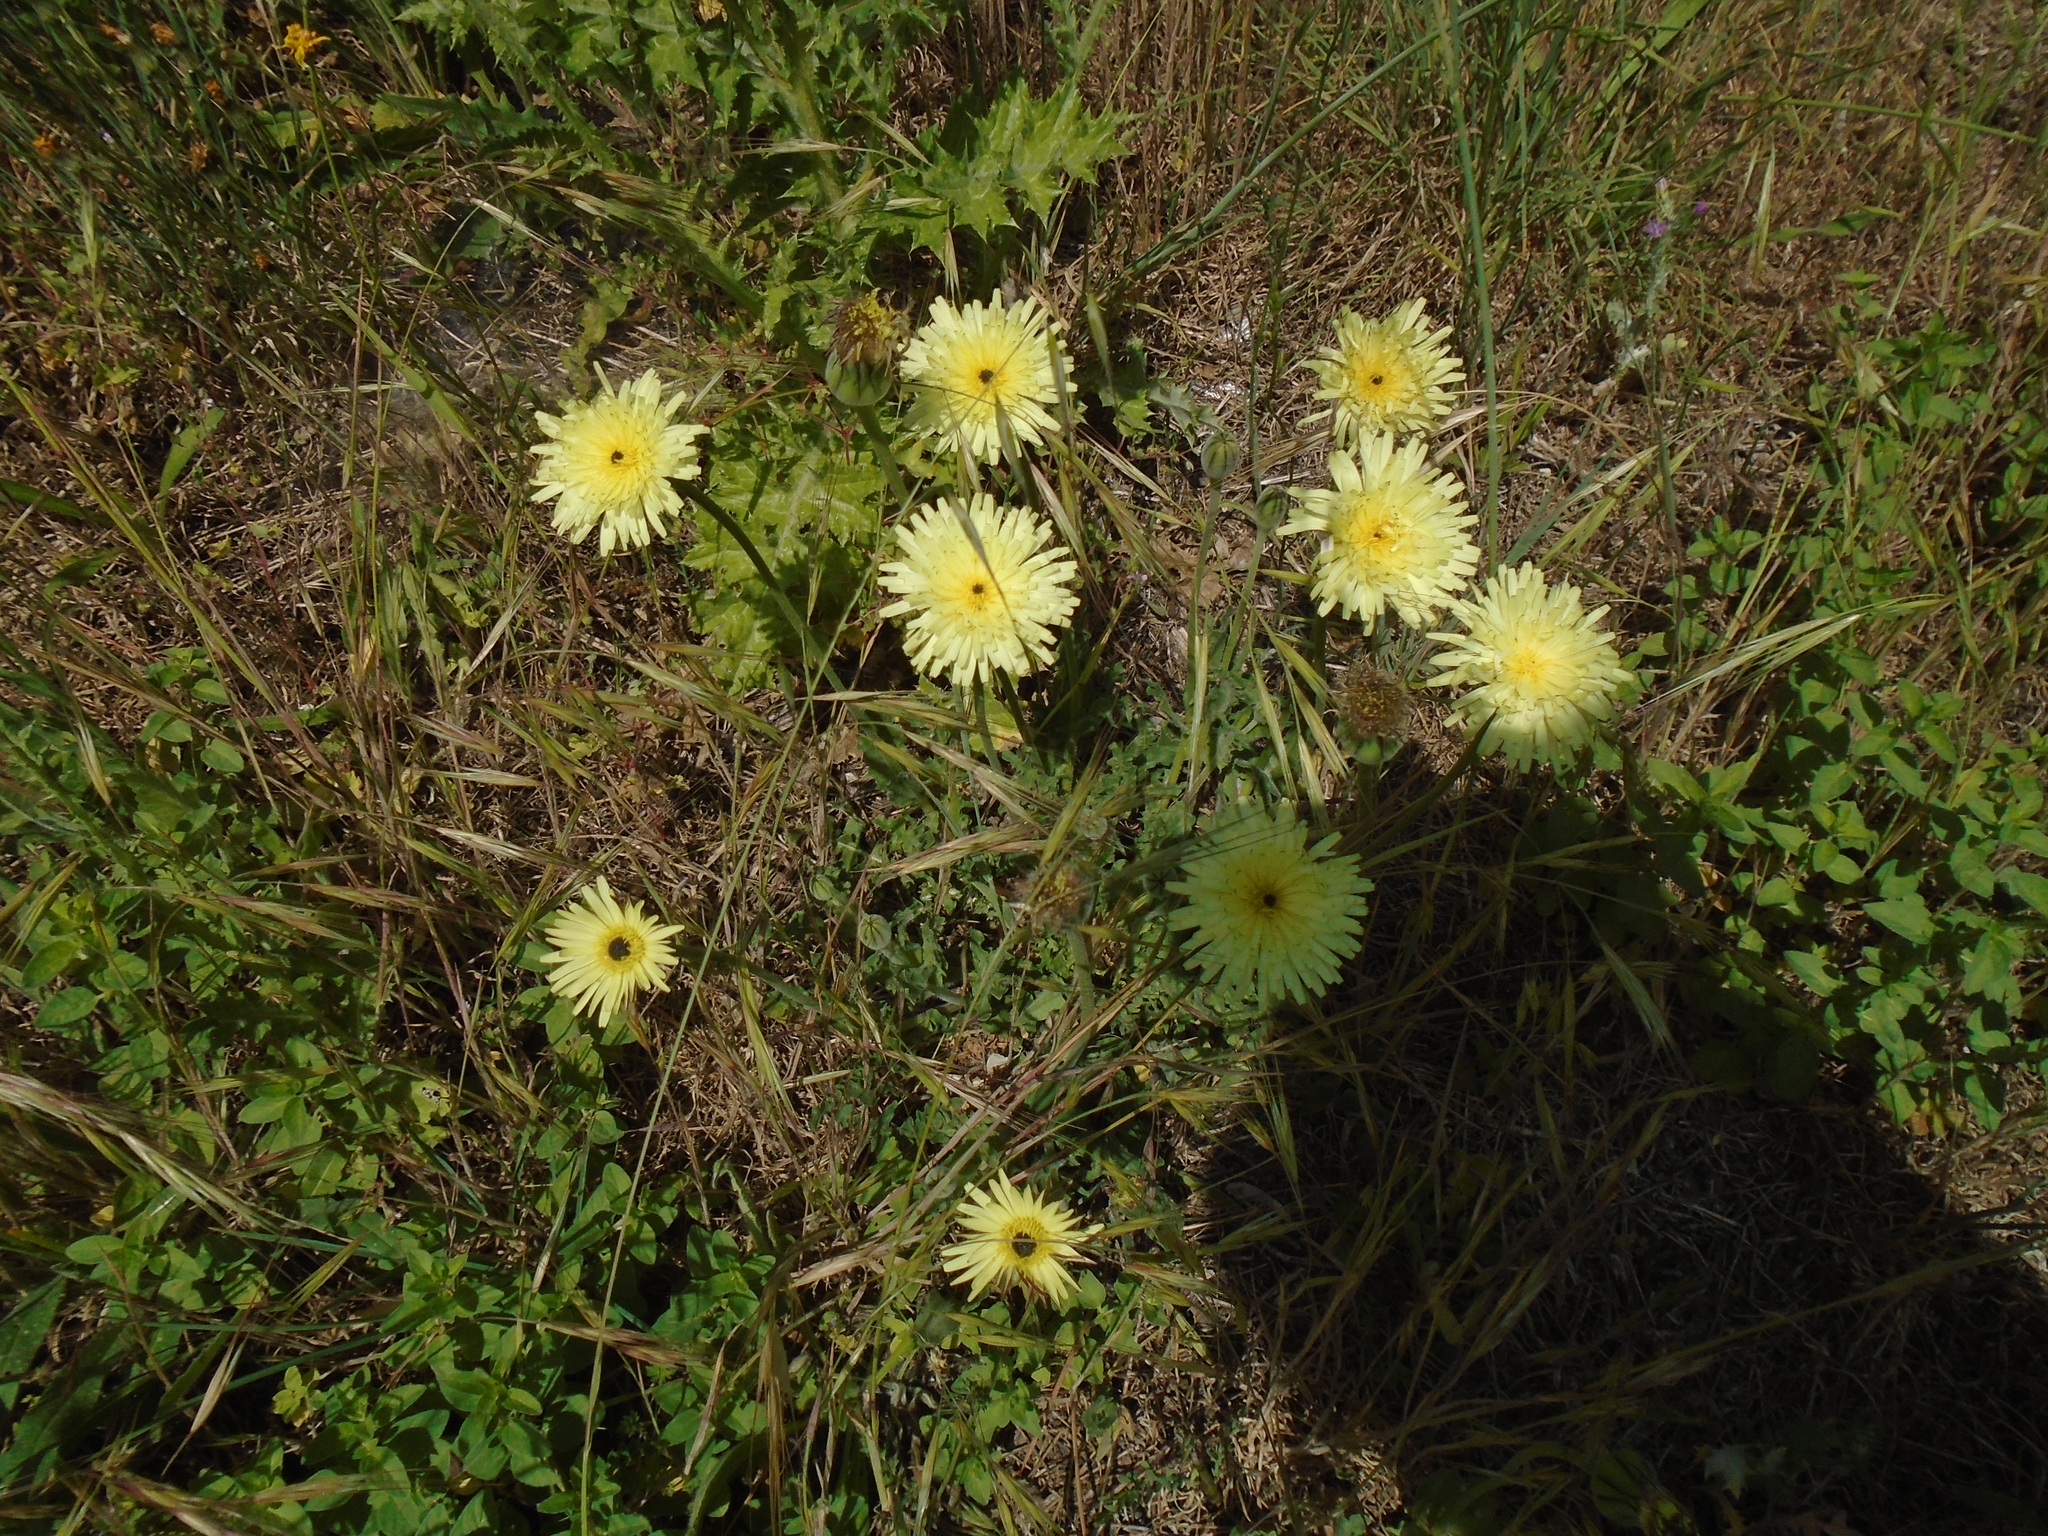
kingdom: Plantae
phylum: Tracheophyta
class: Magnoliopsida
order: Asterales
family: Asteraceae
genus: Urospermum
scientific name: Urospermum dalechampii
